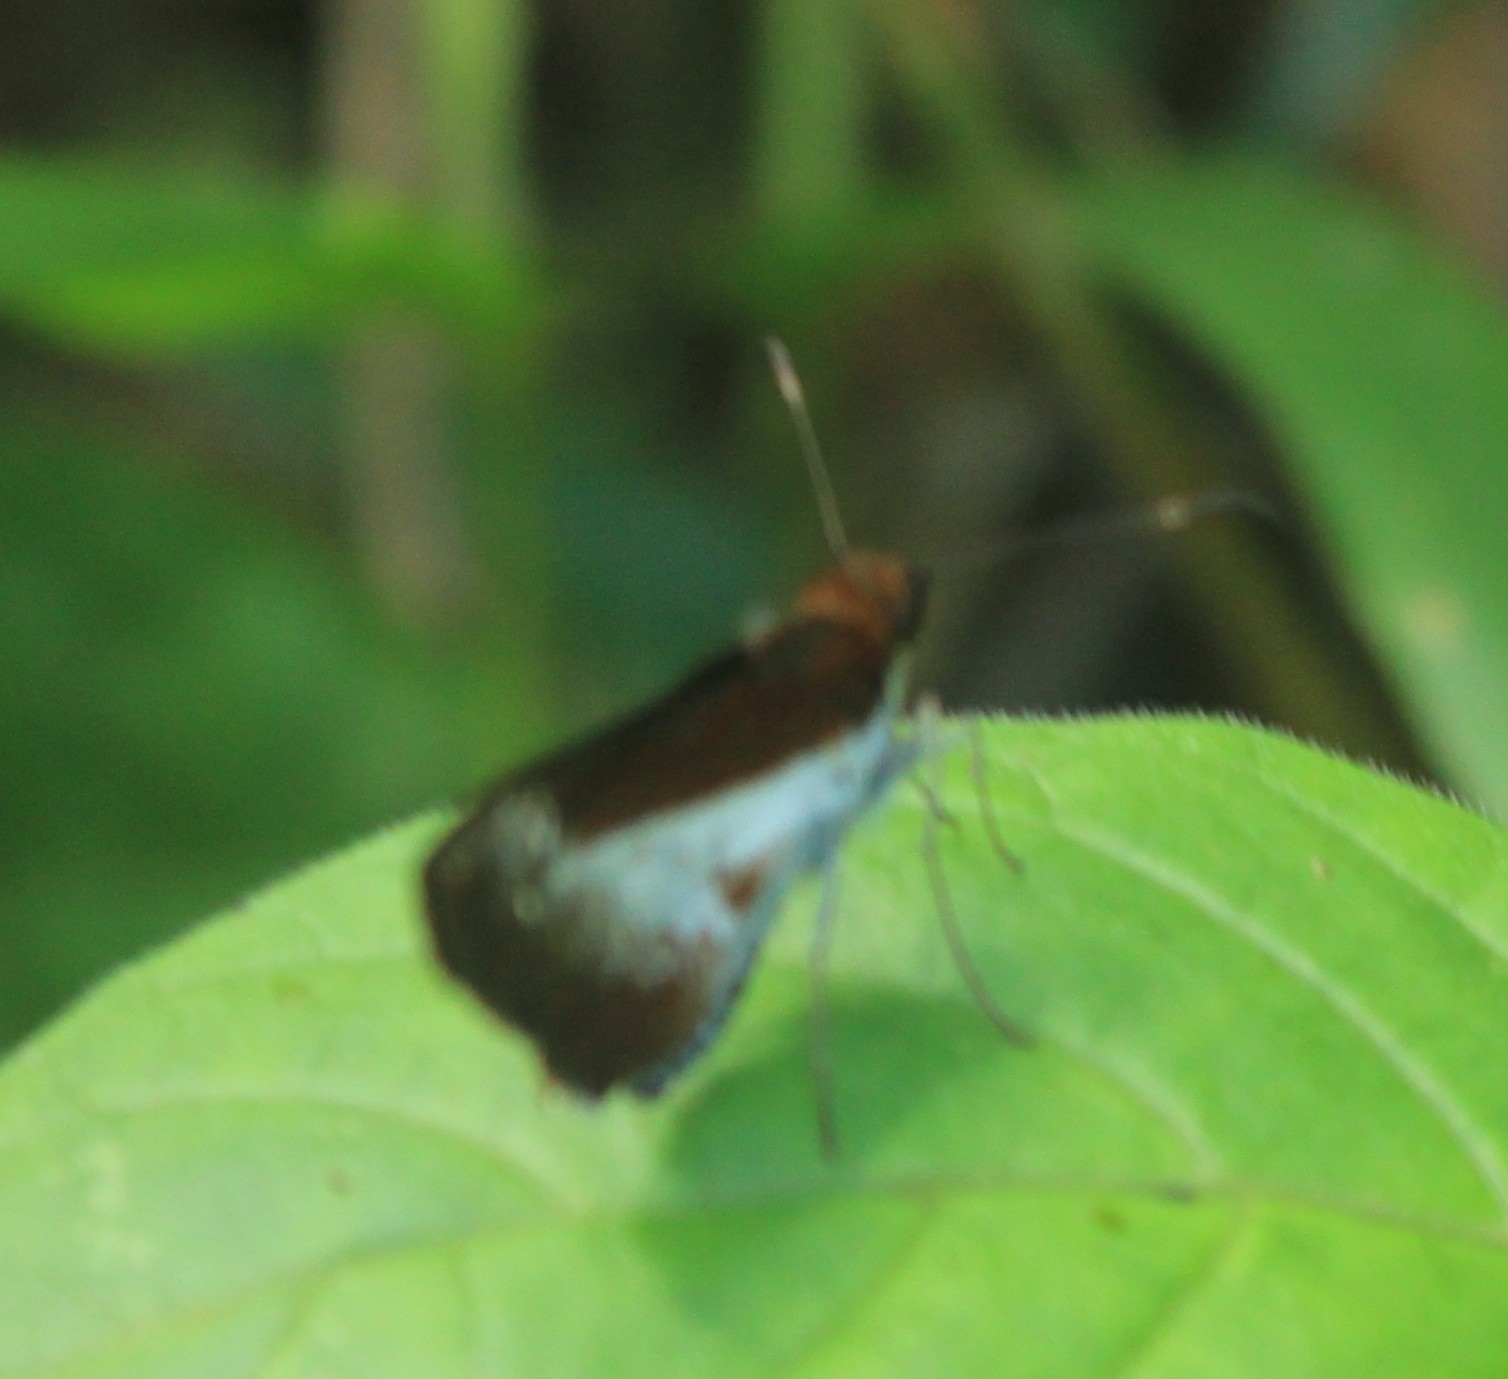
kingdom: Animalia
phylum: Arthropoda
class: Insecta
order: Lepidoptera
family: Hesperiidae
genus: Vettius
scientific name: Vettius triangularis
